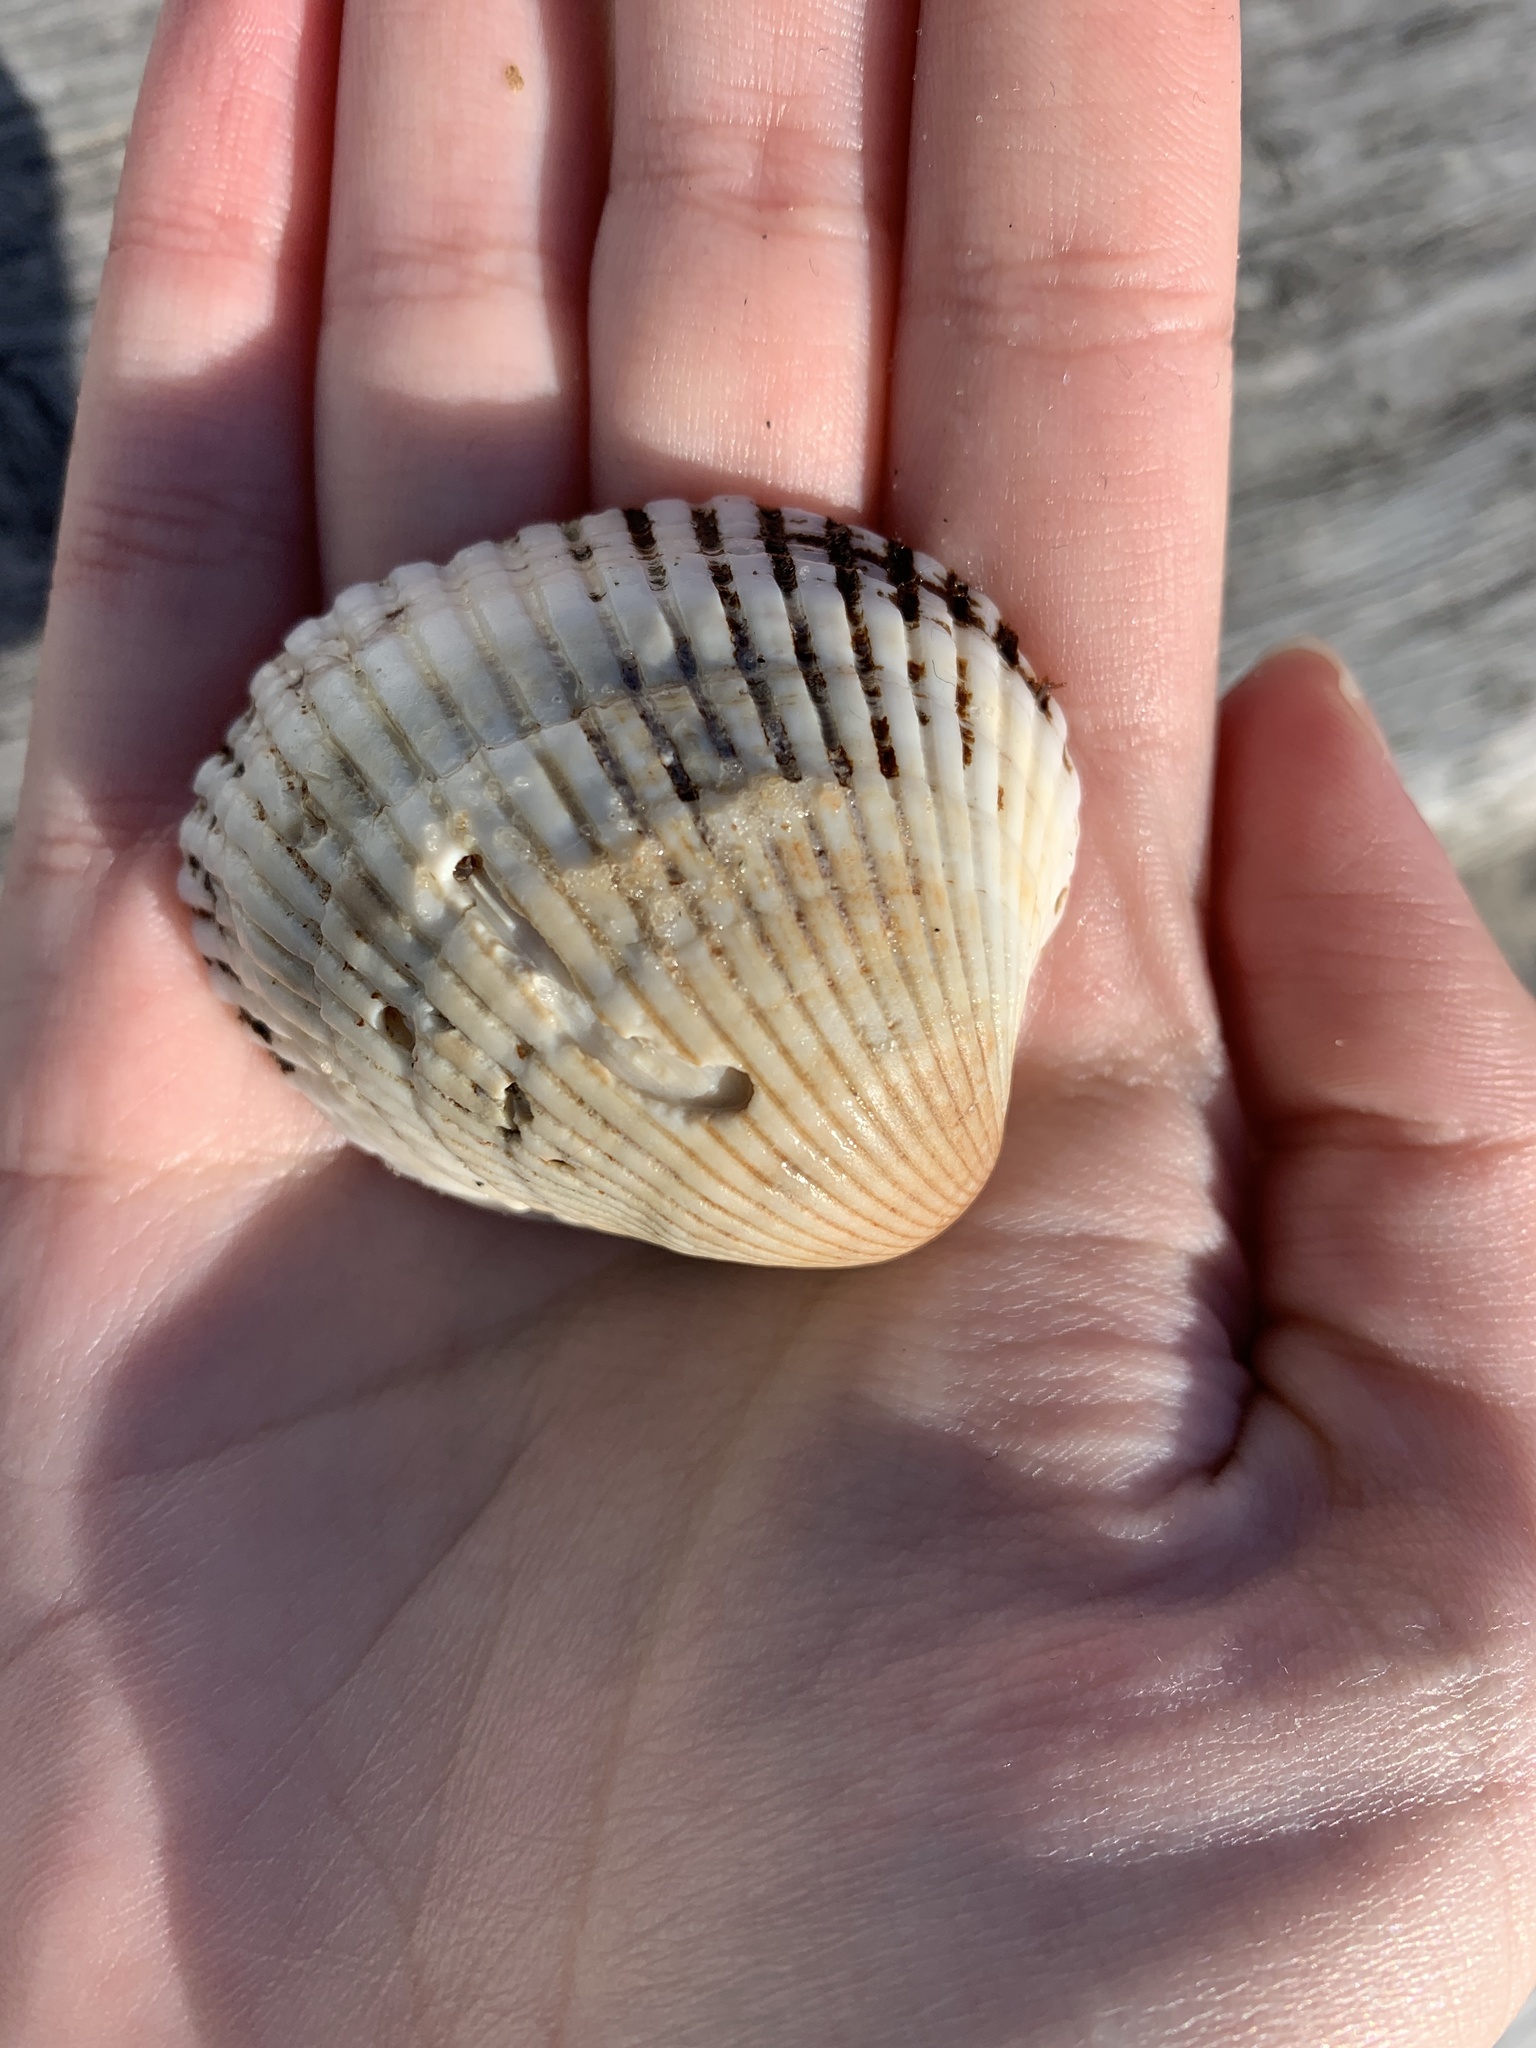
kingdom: Animalia
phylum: Mollusca
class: Bivalvia
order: Arcida
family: Arcidae
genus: Lunarca
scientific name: Lunarca ovalis
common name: Blood ark
